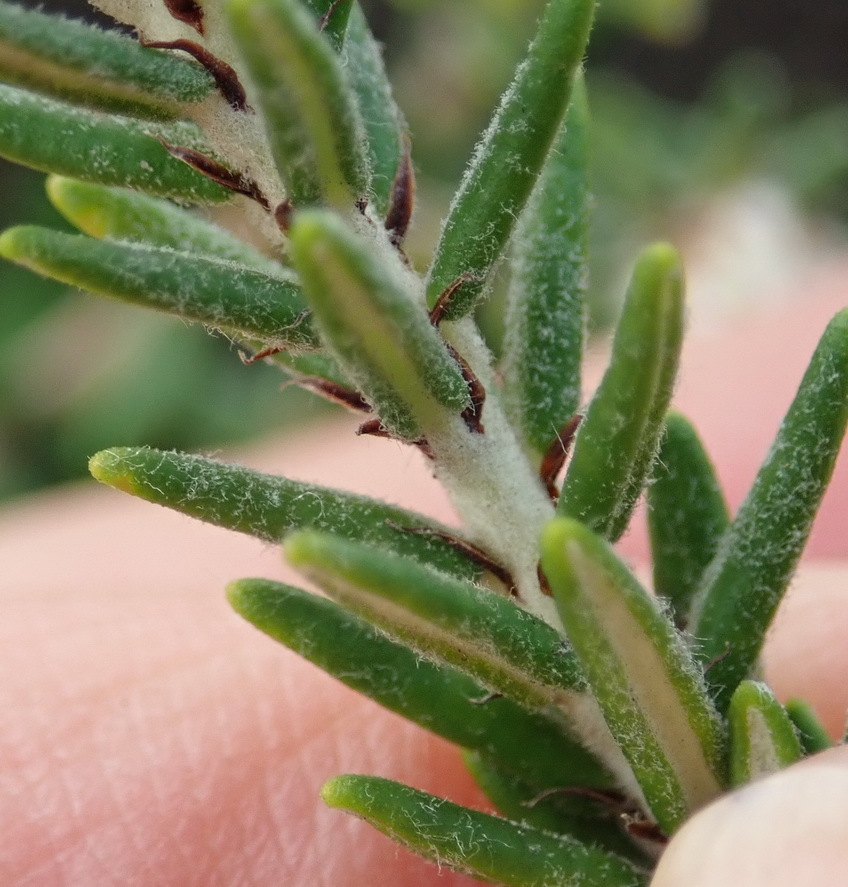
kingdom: Plantae
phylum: Tracheophyta
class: Magnoliopsida
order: Rosales
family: Rhamnaceae
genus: Trichocephalus
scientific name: Trichocephalus stipularis
